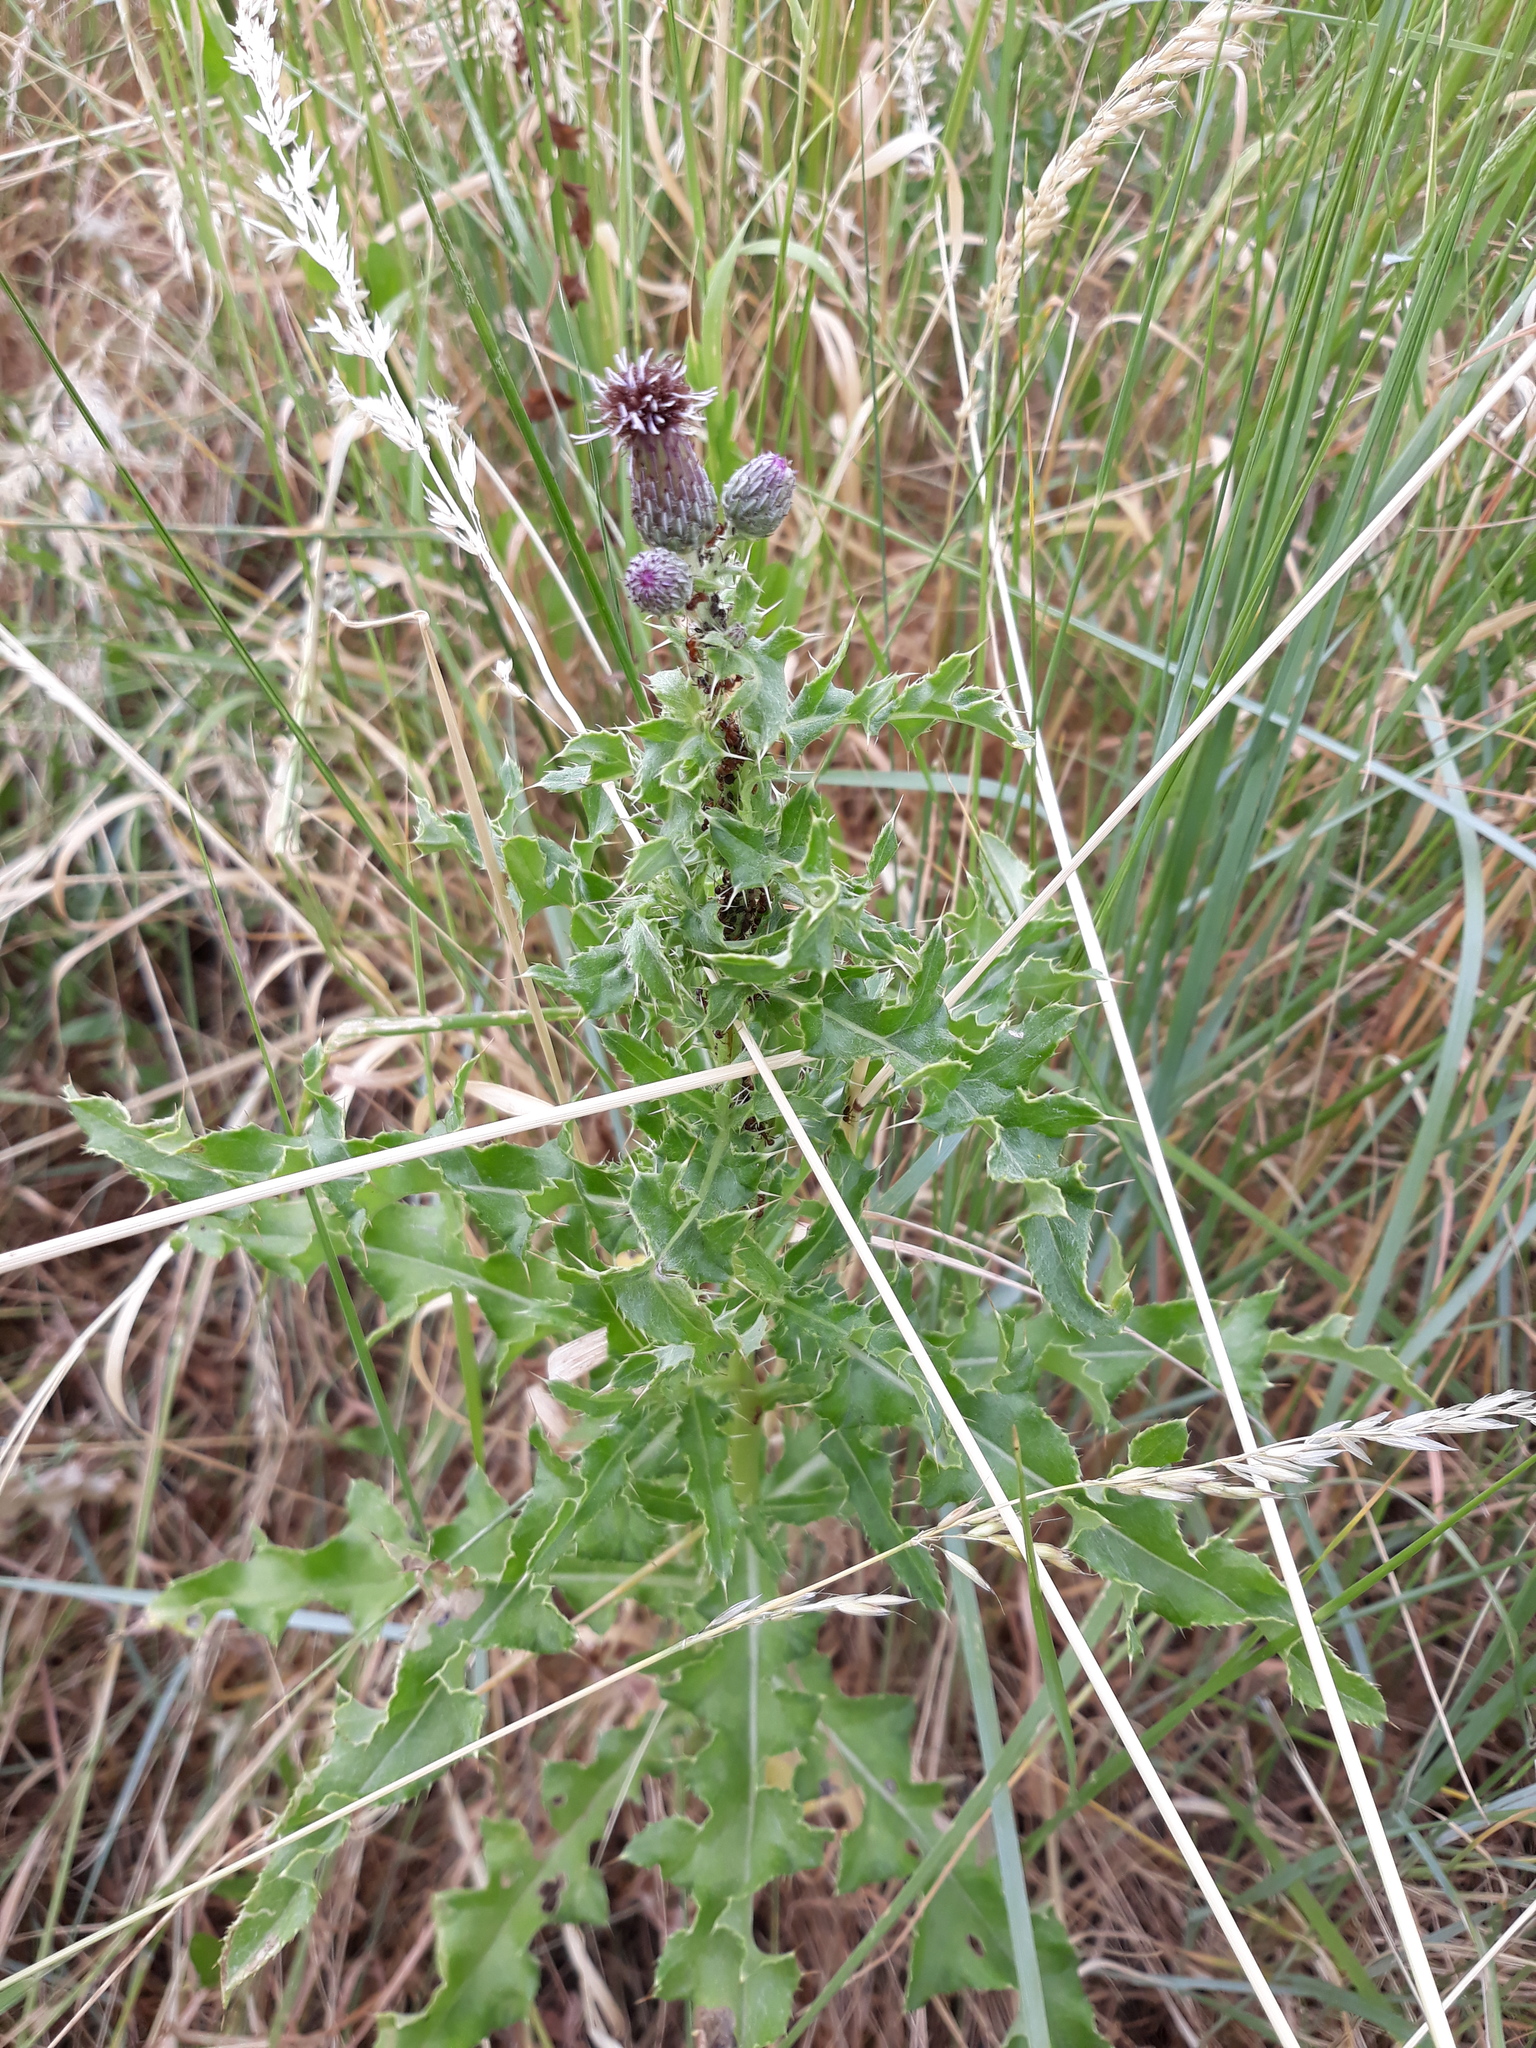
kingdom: Plantae
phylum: Tracheophyta
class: Magnoliopsida
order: Asterales
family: Asteraceae
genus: Cirsium
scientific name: Cirsium arvense
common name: Creeping thistle
